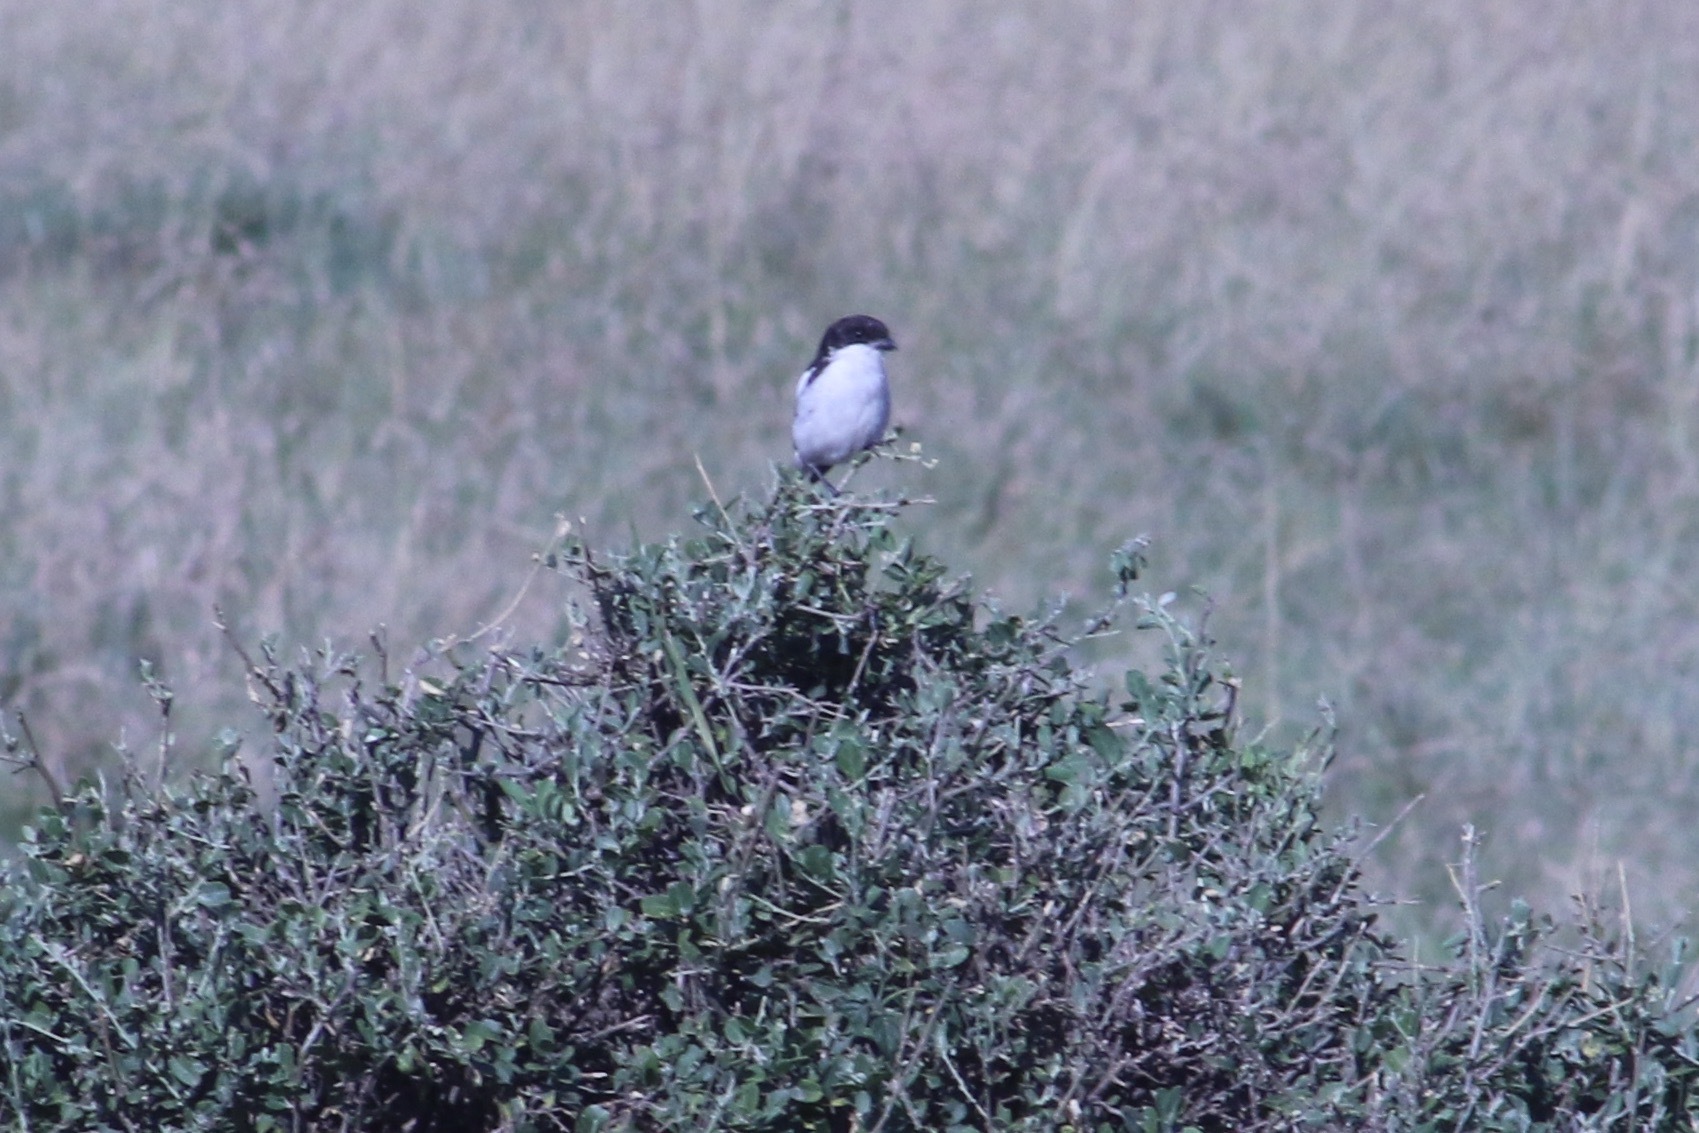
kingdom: Animalia
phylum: Chordata
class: Aves
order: Passeriformes
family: Laniidae
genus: Lanius
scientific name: Lanius humeralis
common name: Northern fiscal
